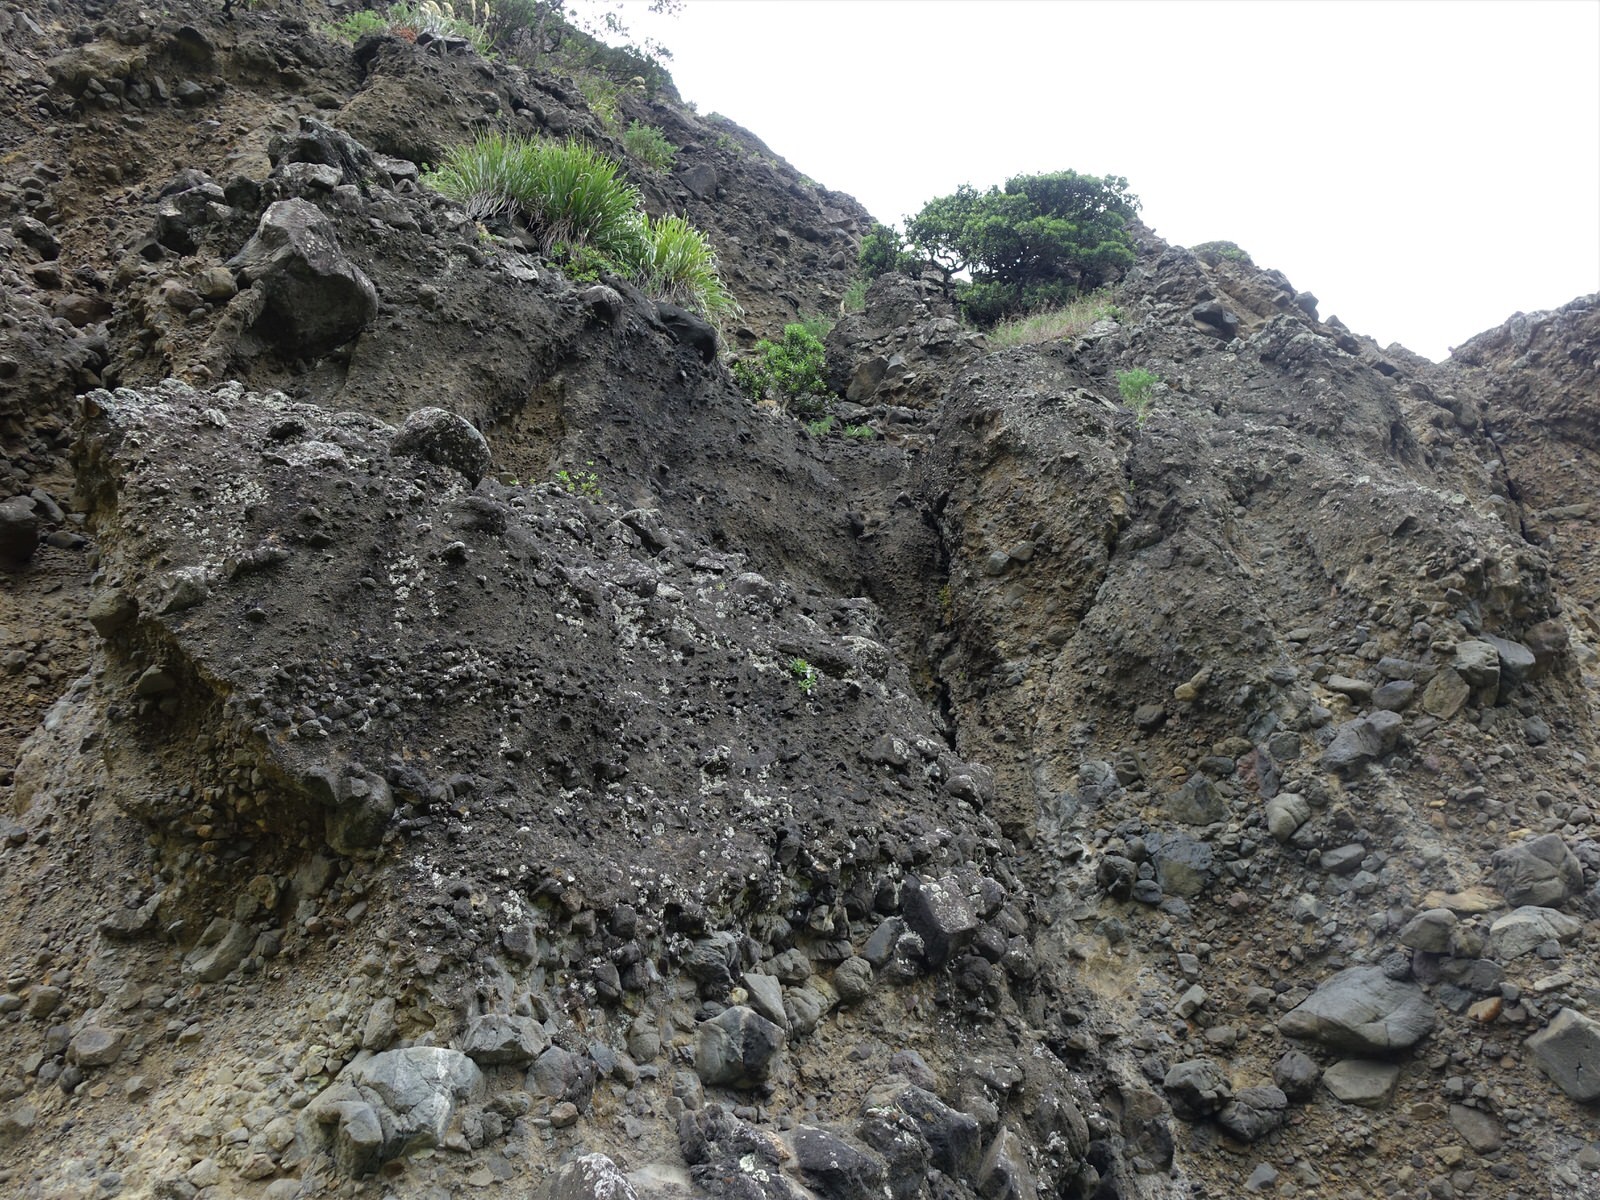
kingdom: Plantae
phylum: Tracheophyta
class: Magnoliopsida
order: Lamiales
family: Plantaginaceae
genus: Veronica
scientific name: Veronica bishopiana
